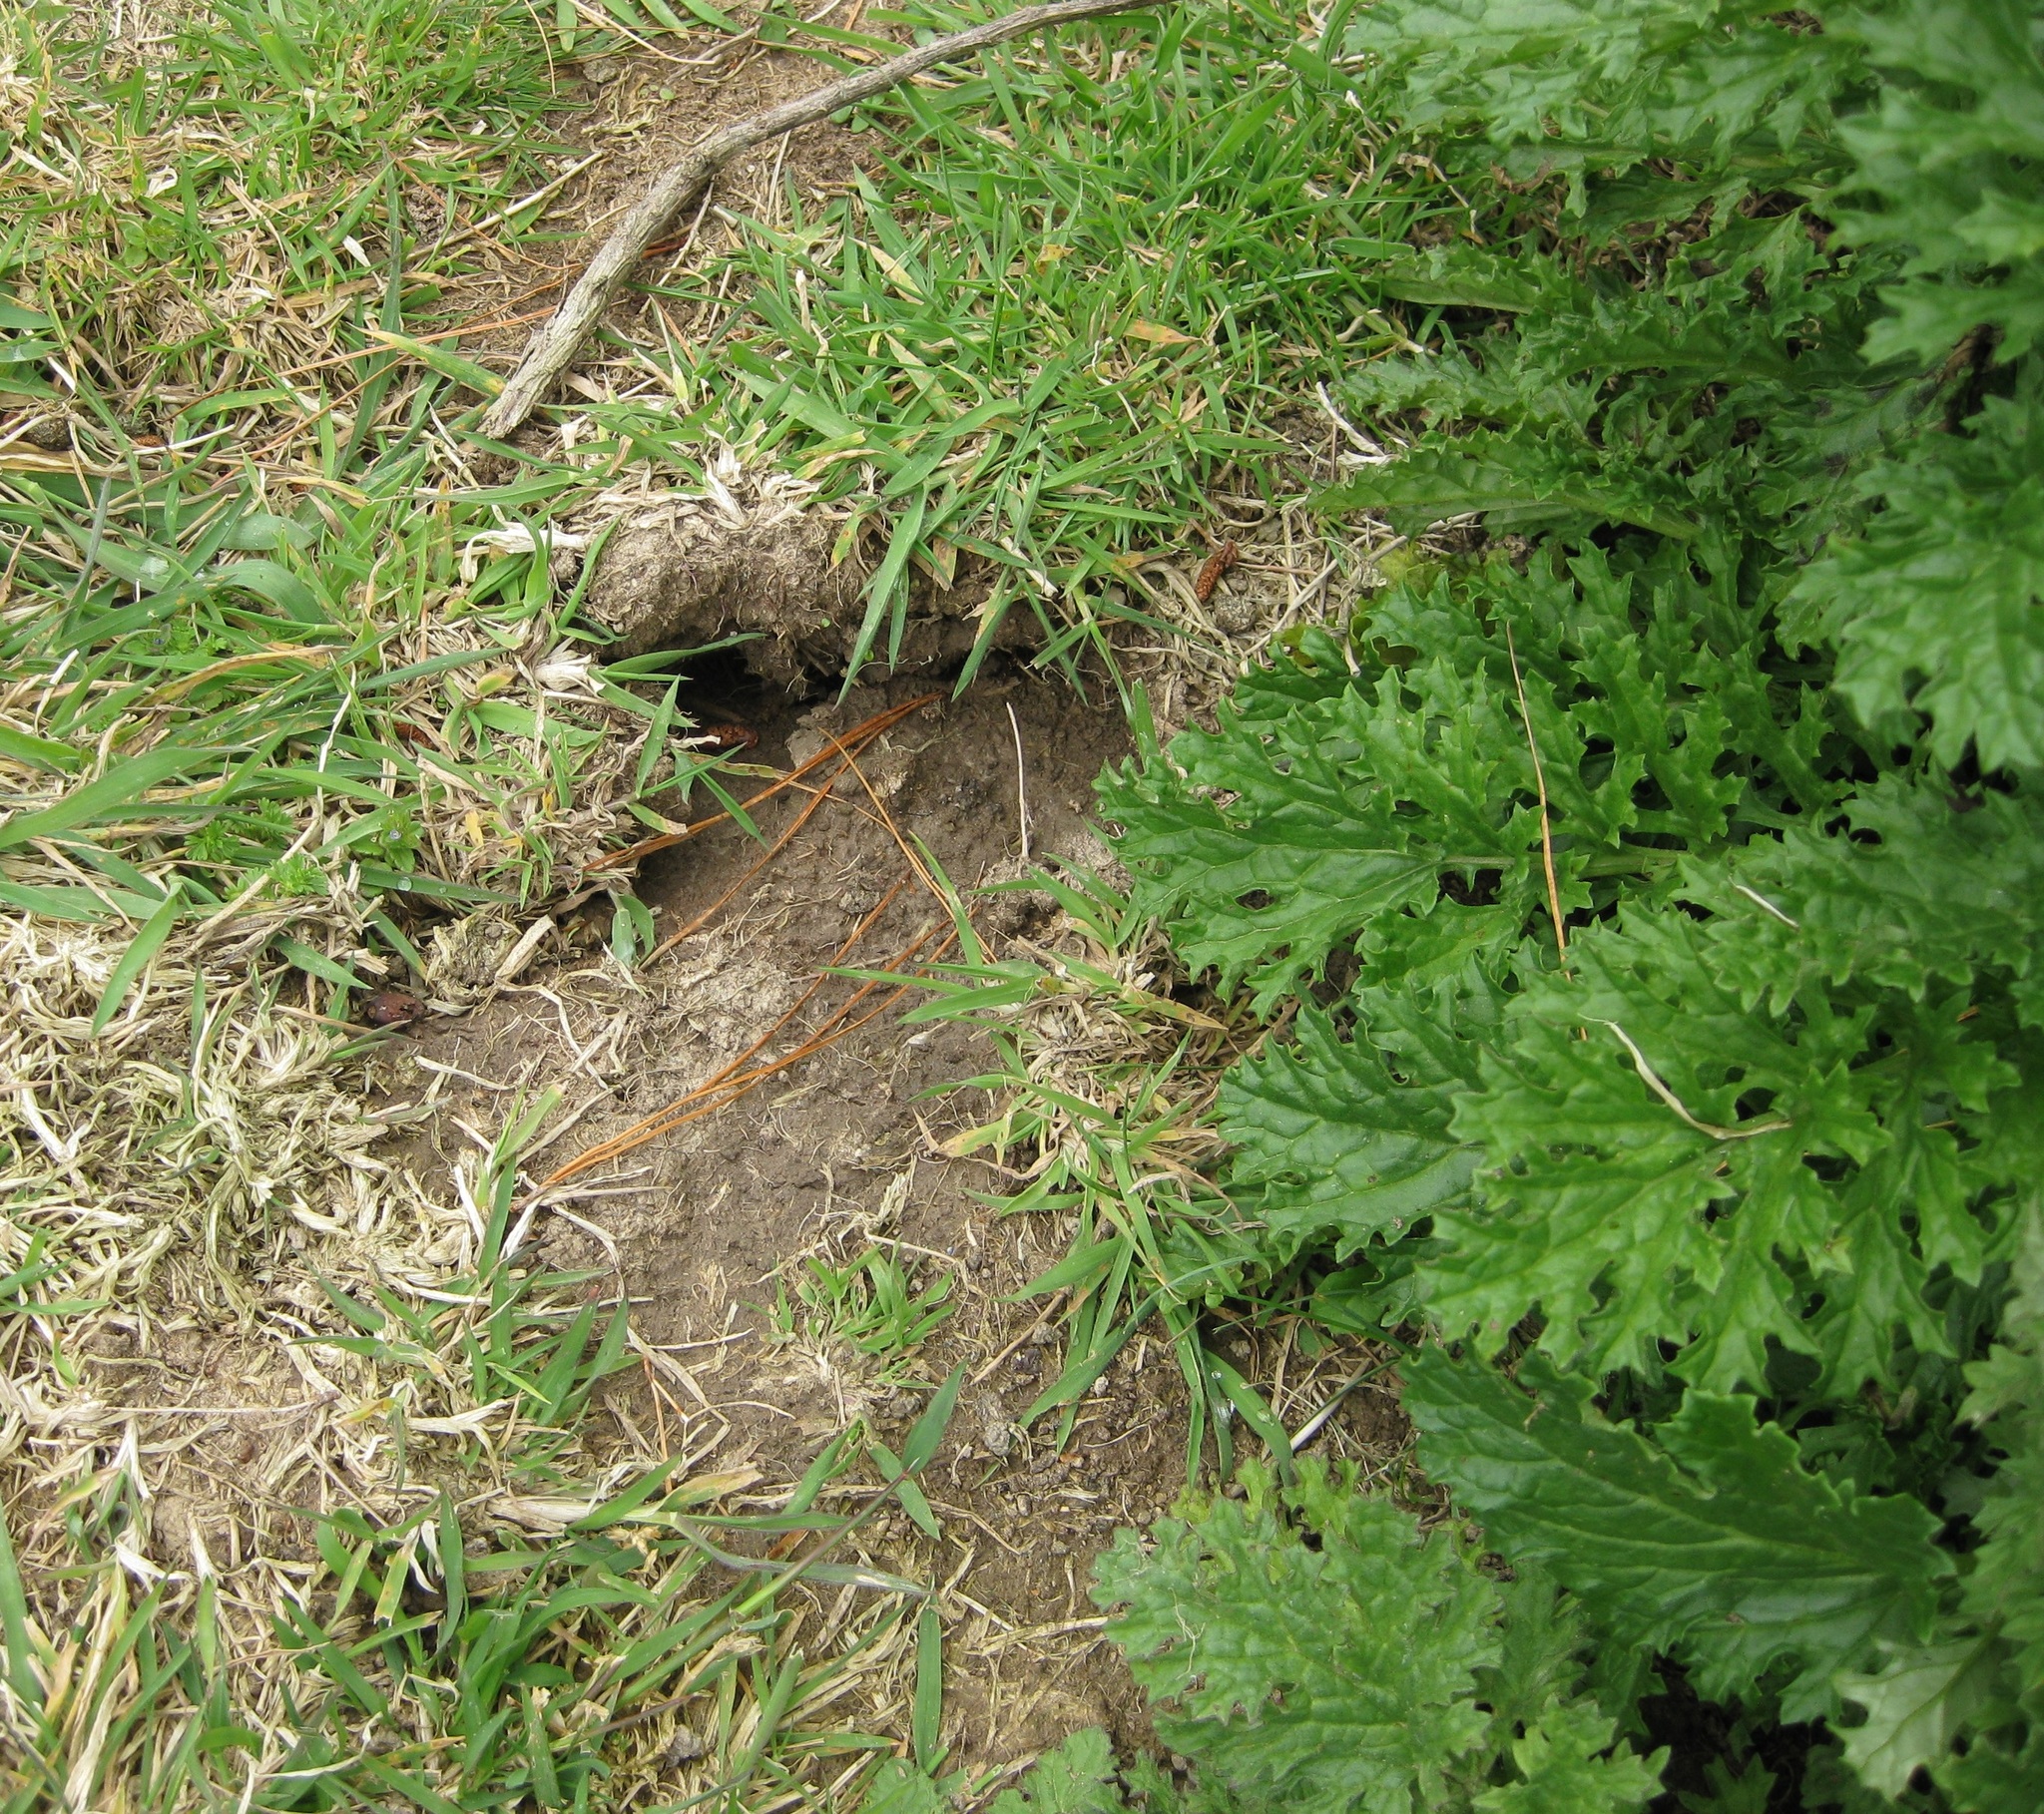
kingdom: Animalia
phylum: Chordata
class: Mammalia
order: Artiodactyla
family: Suidae
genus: Sus
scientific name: Sus scrofa
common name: Wild boar
